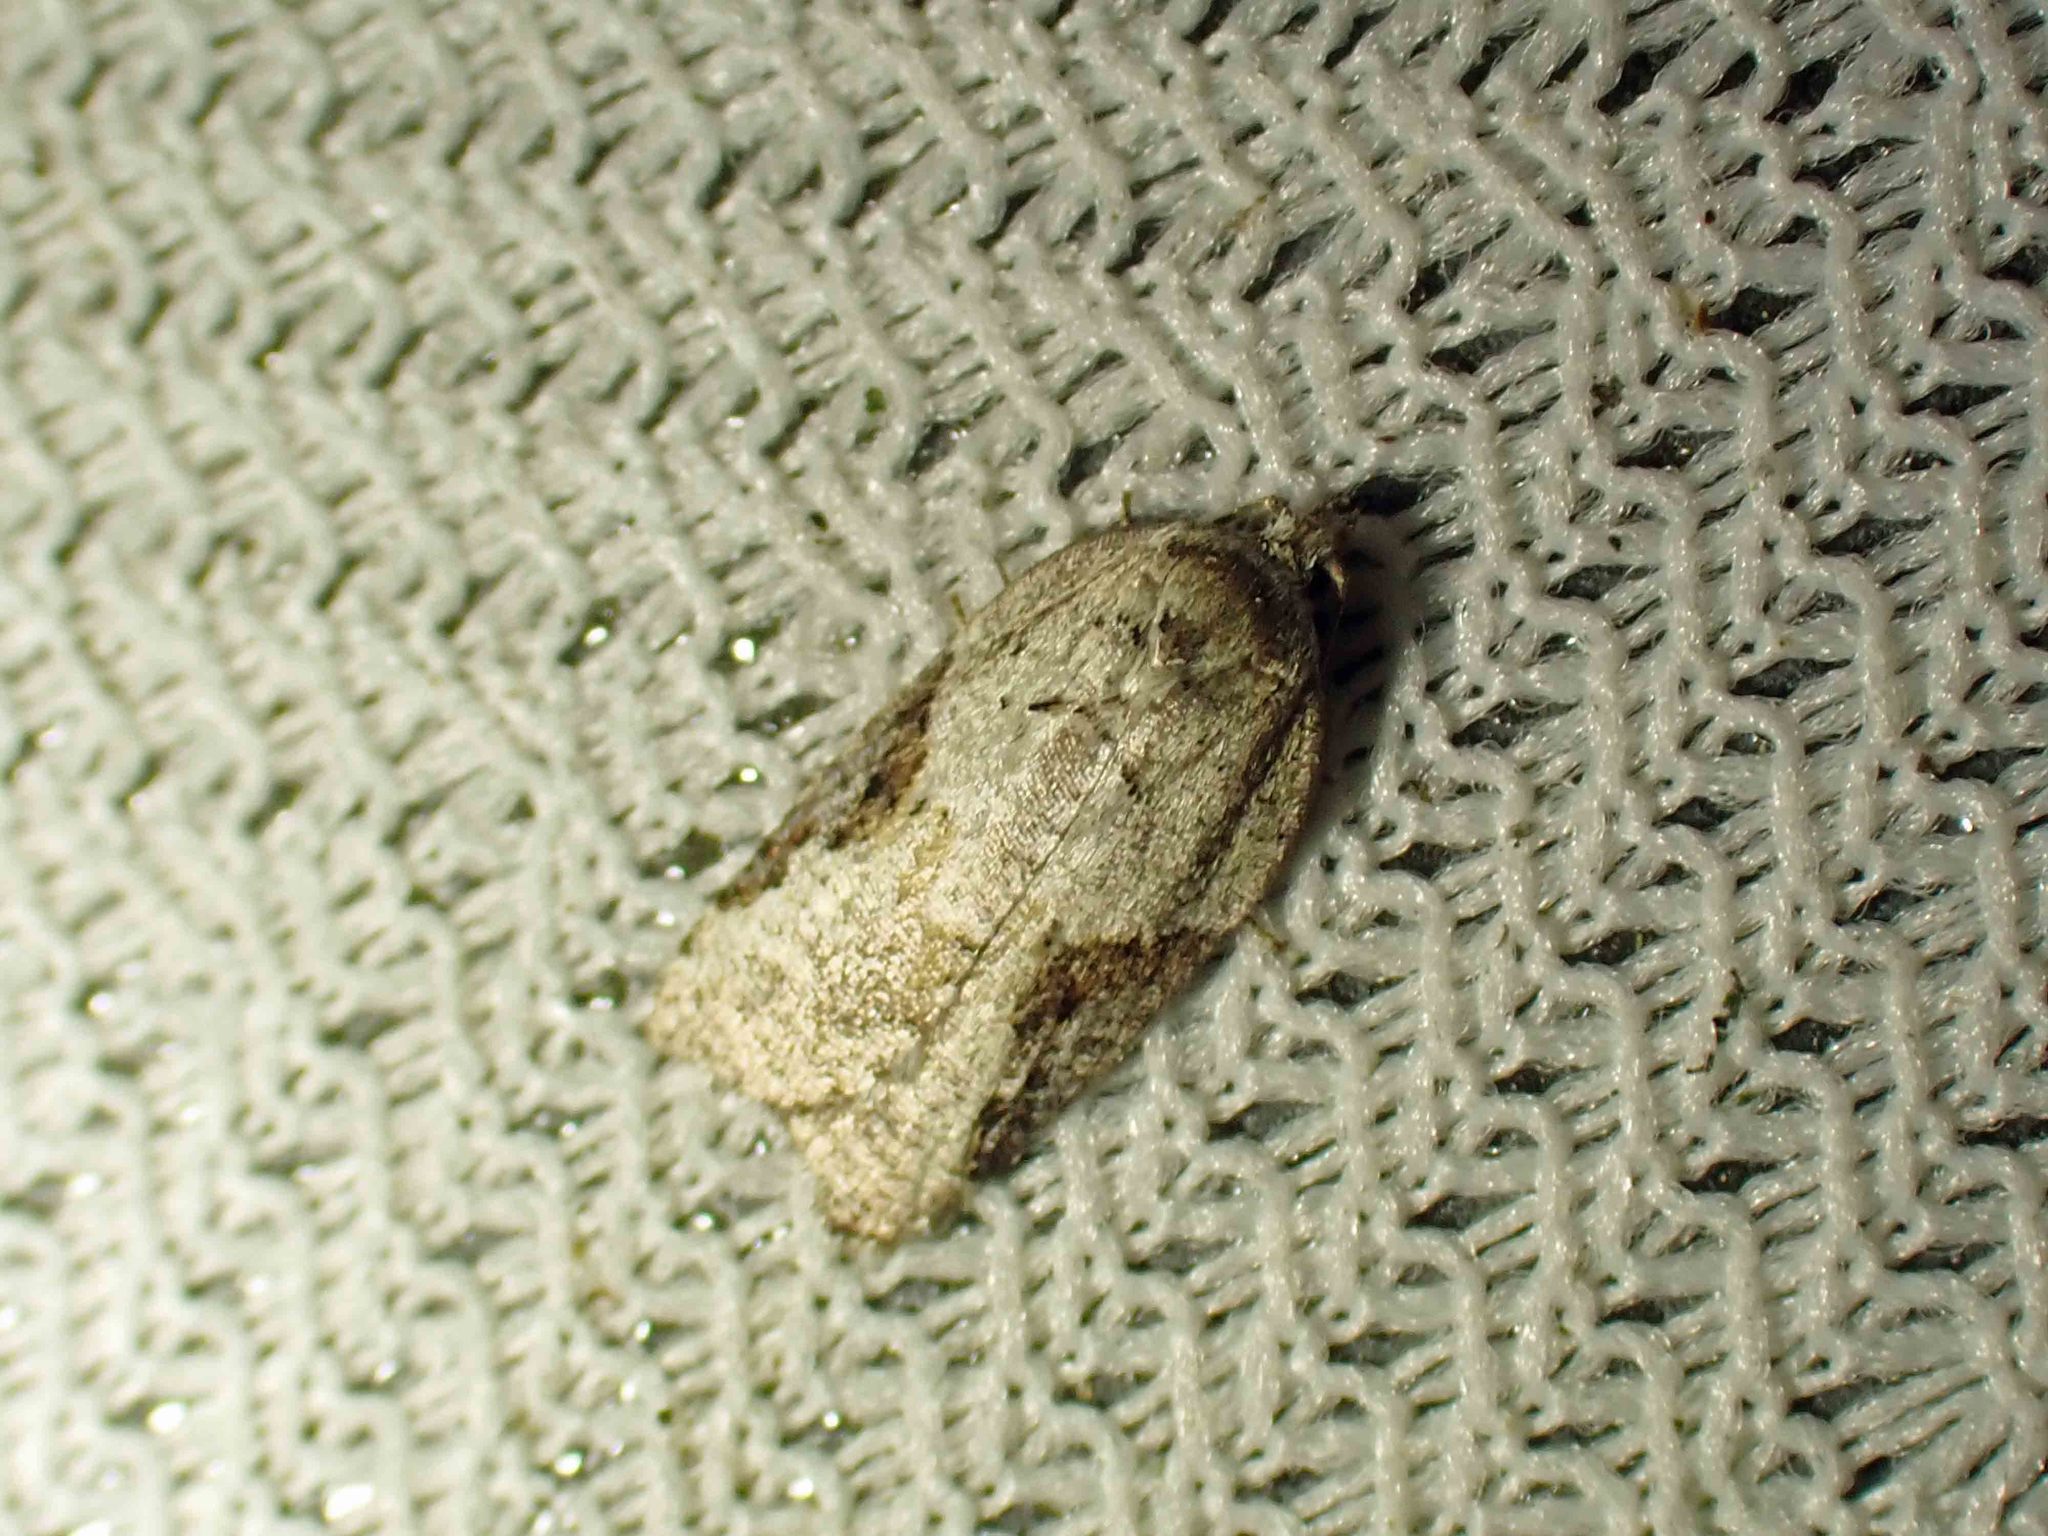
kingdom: Animalia
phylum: Arthropoda
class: Insecta
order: Lepidoptera
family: Tortricidae
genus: Acleris
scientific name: Acleris forbesana
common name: Forbes' acleris moth
